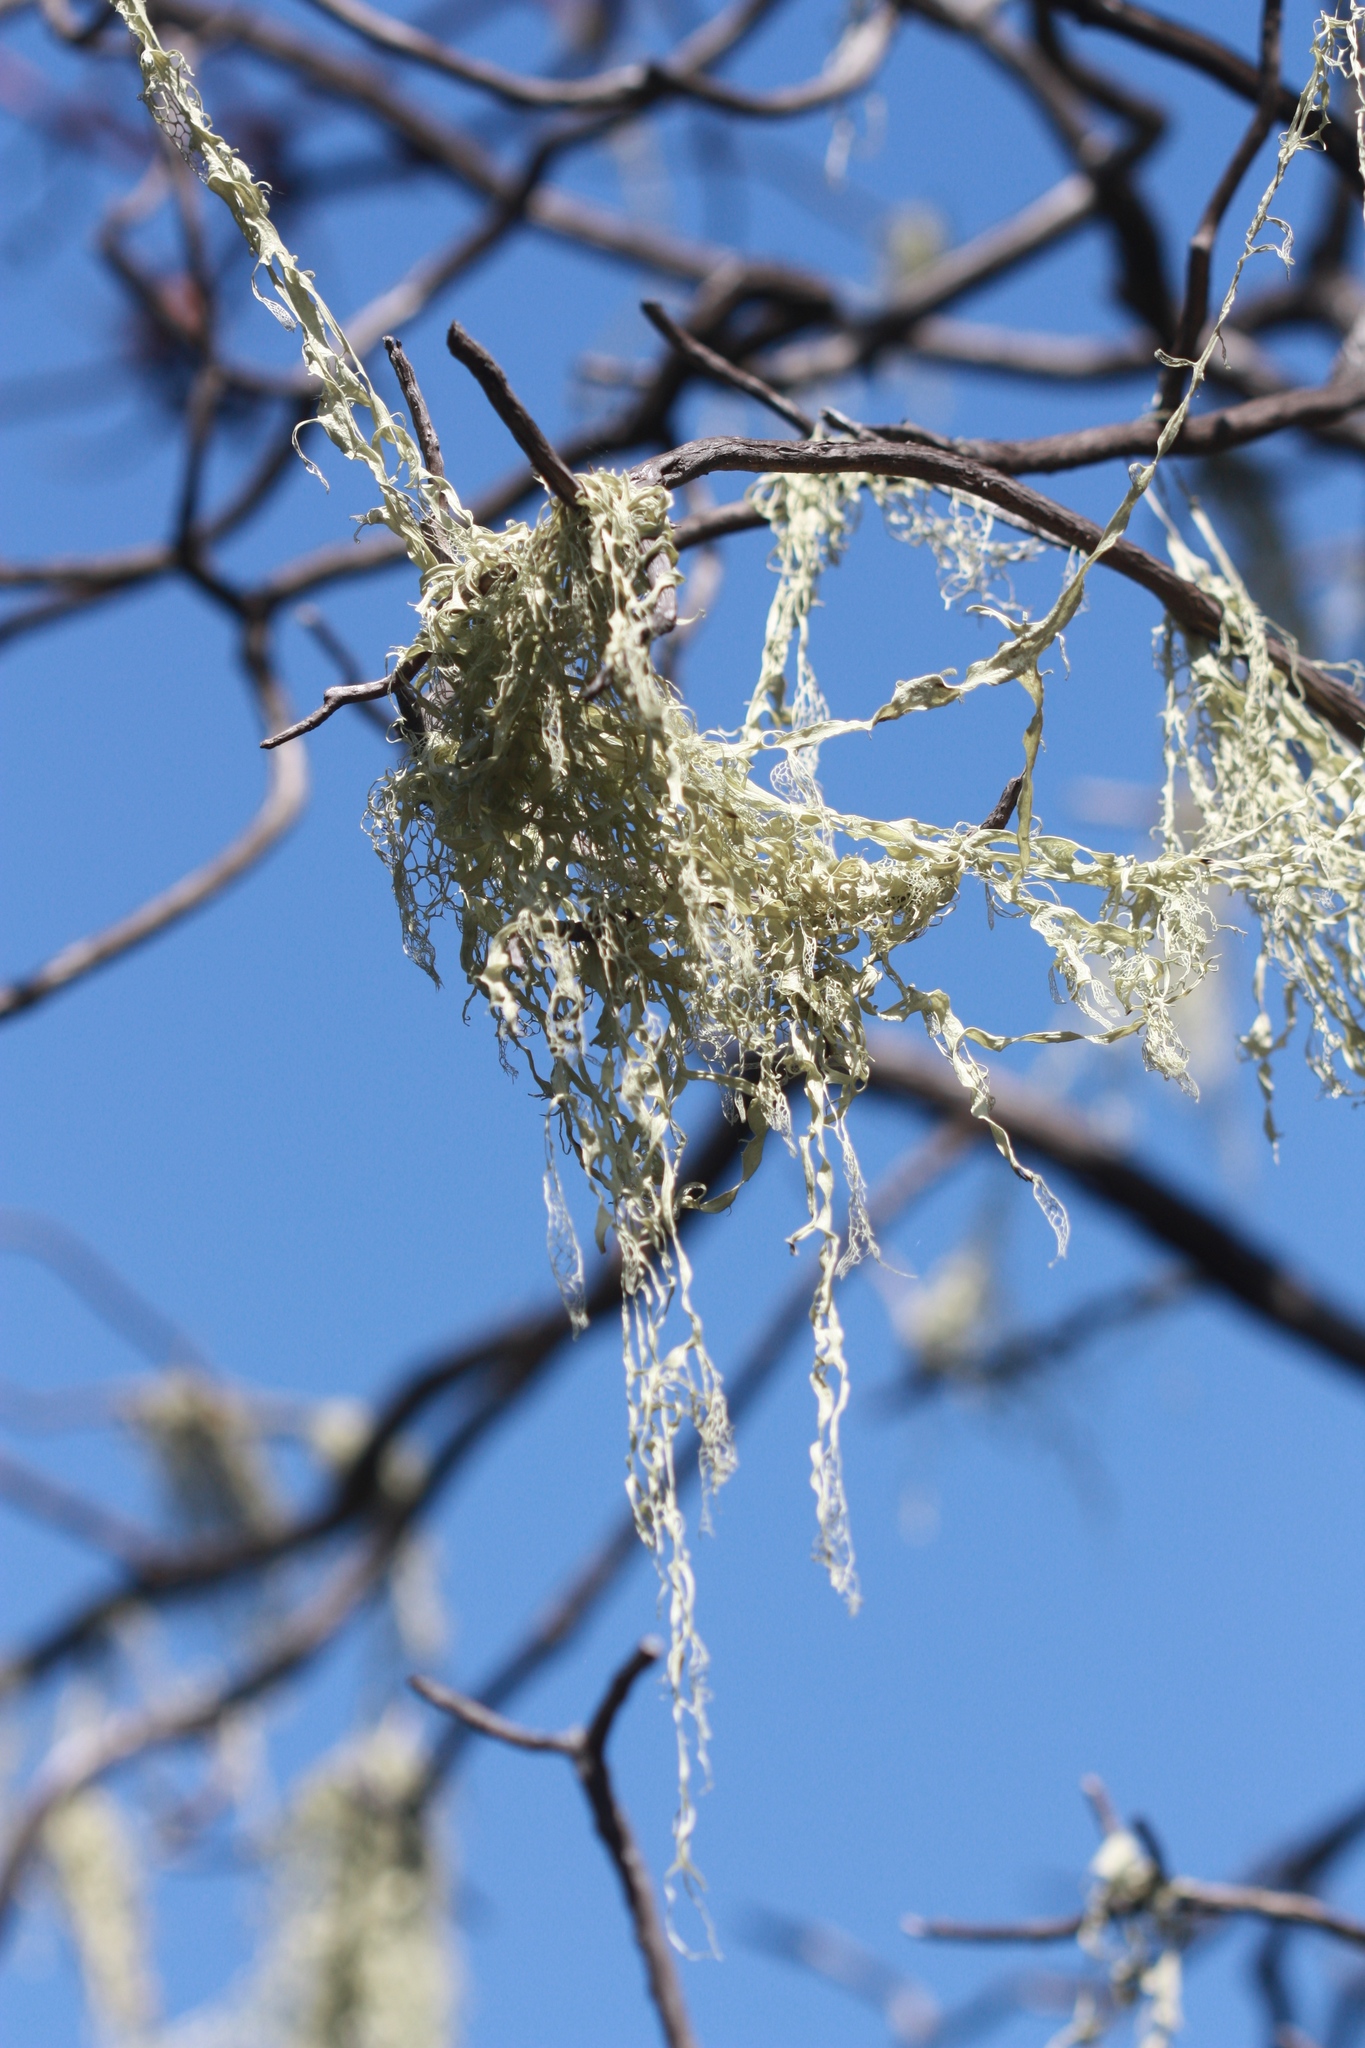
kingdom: Fungi
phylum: Ascomycota
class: Lecanoromycetes
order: Lecanorales
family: Ramalinaceae
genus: Ramalina
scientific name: Ramalina menziesii
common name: Lace lichen
